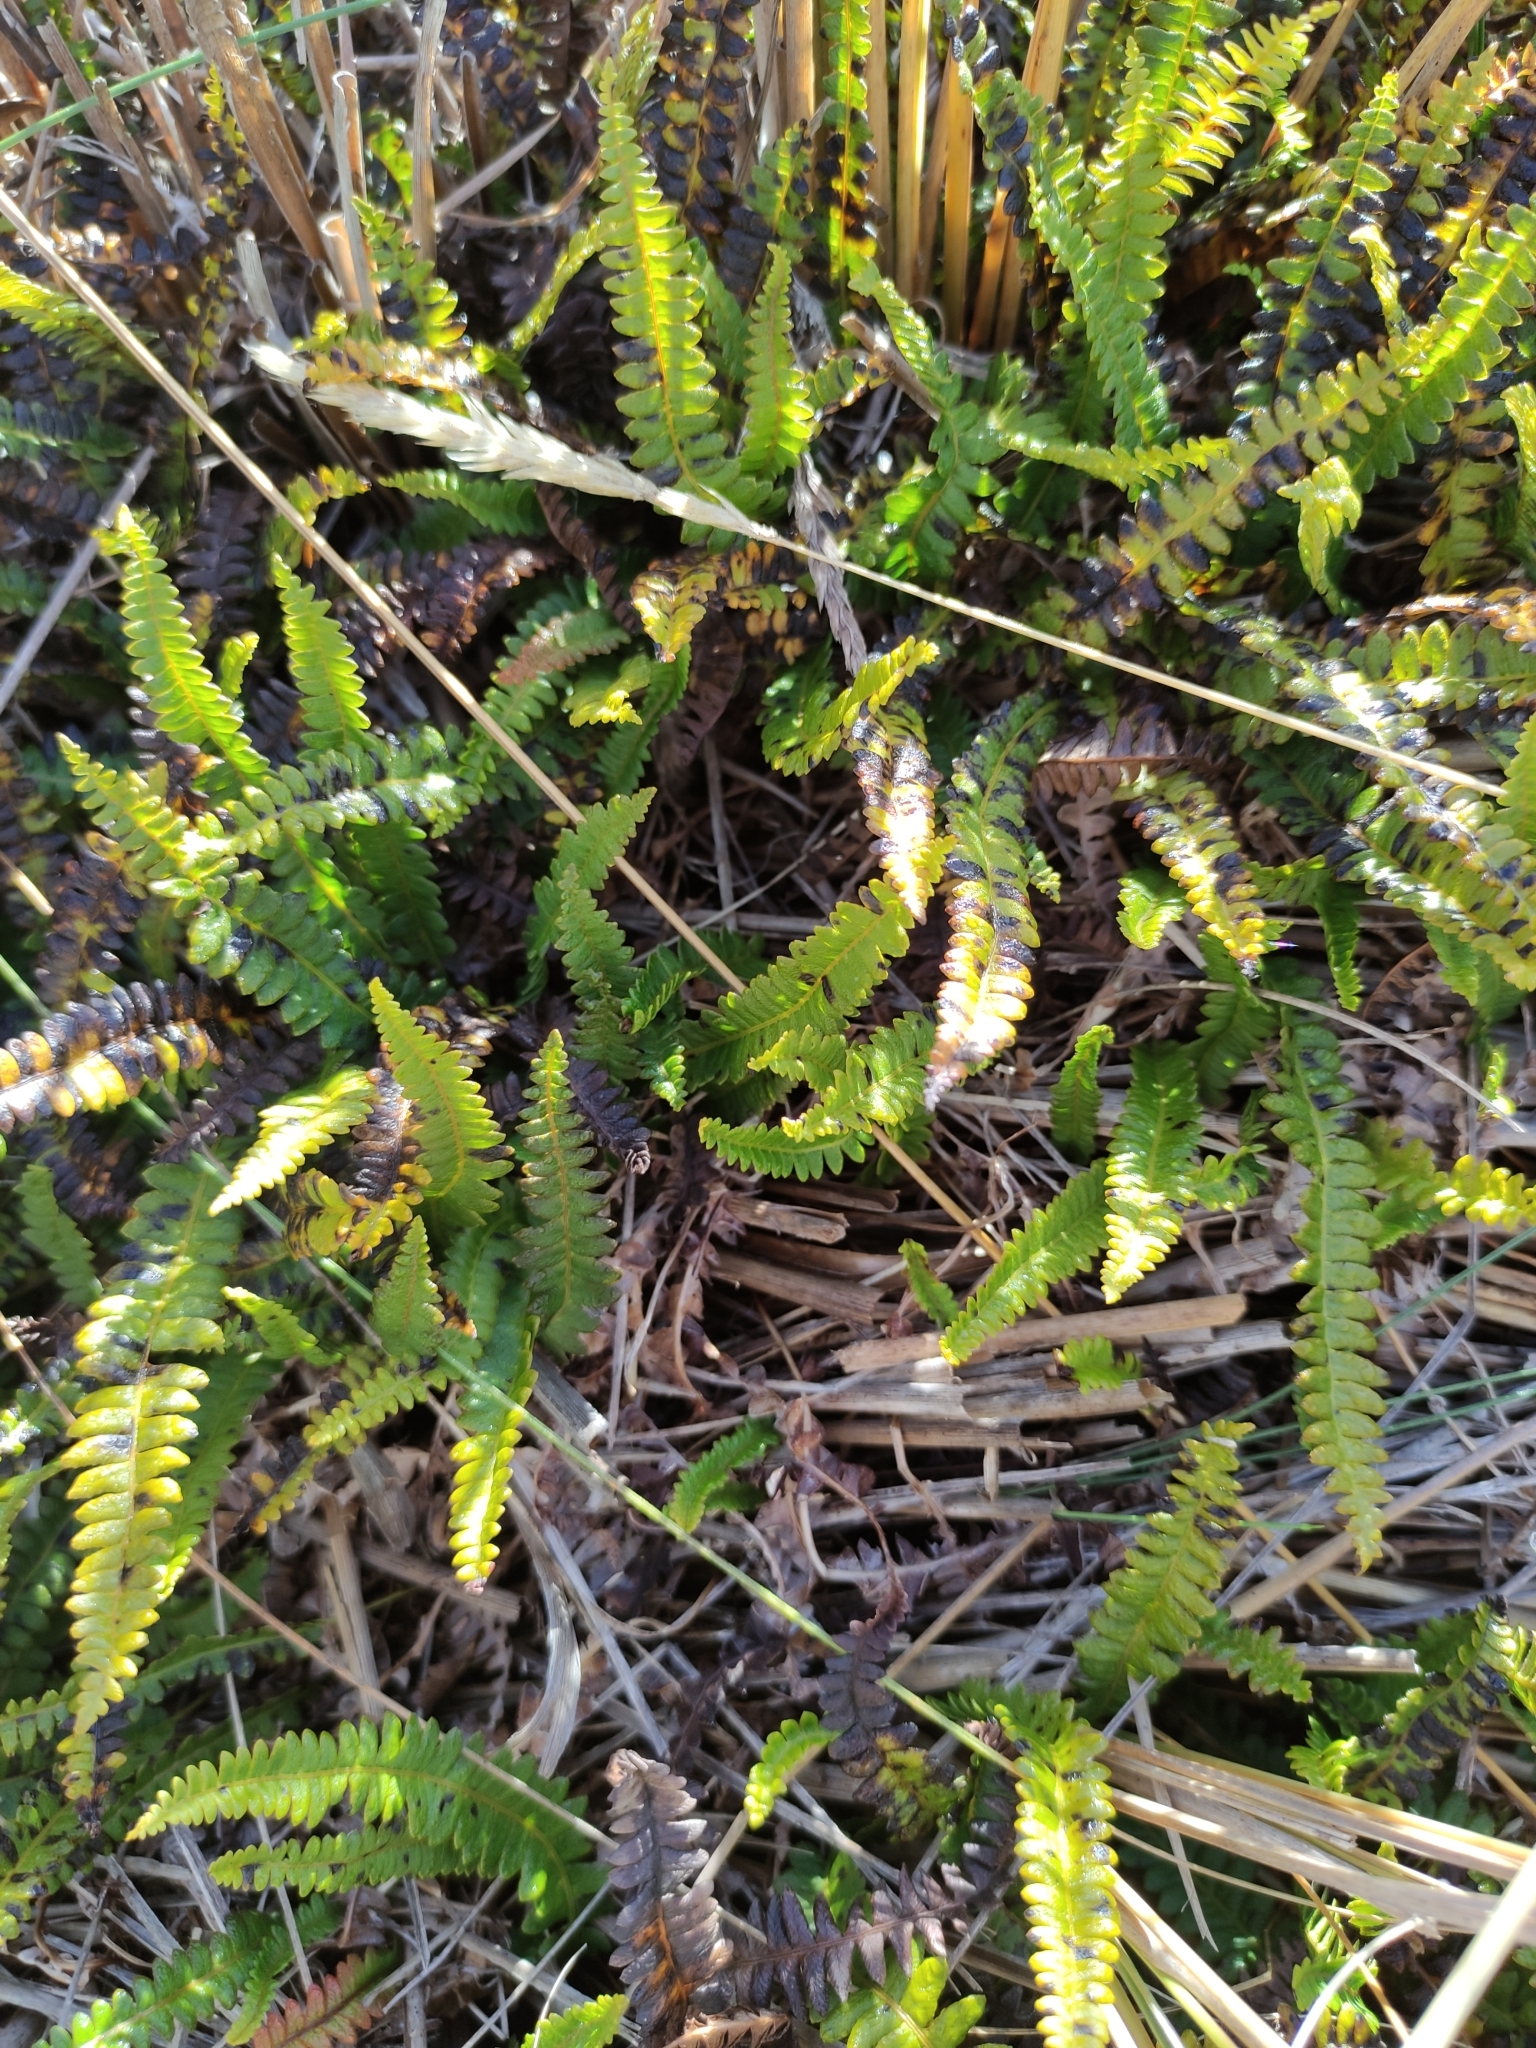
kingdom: Plantae
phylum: Tracheophyta
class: Polypodiopsida
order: Polypodiales
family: Blechnaceae
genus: Austroblechnum
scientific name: Austroblechnum penna-marina
